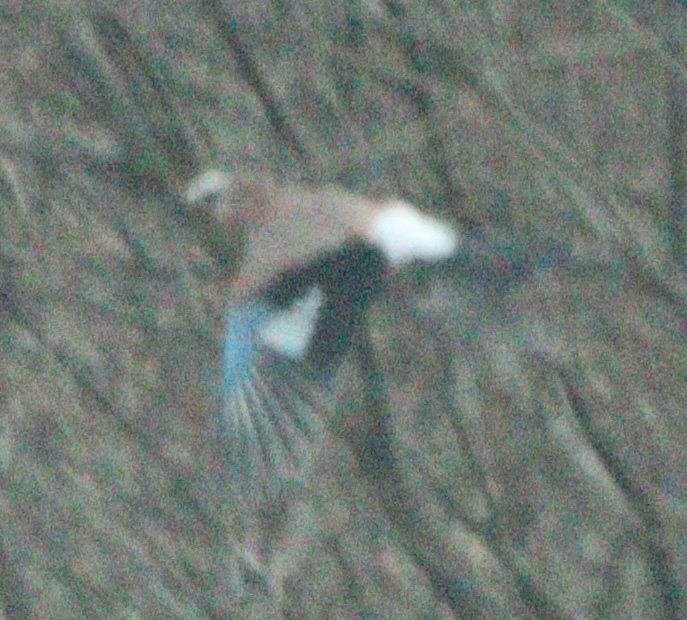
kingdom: Animalia
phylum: Chordata
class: Aves
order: Passeriformes
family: Corvidae
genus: Garrulus
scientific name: Garrulus glandarius
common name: Eurasian jay
